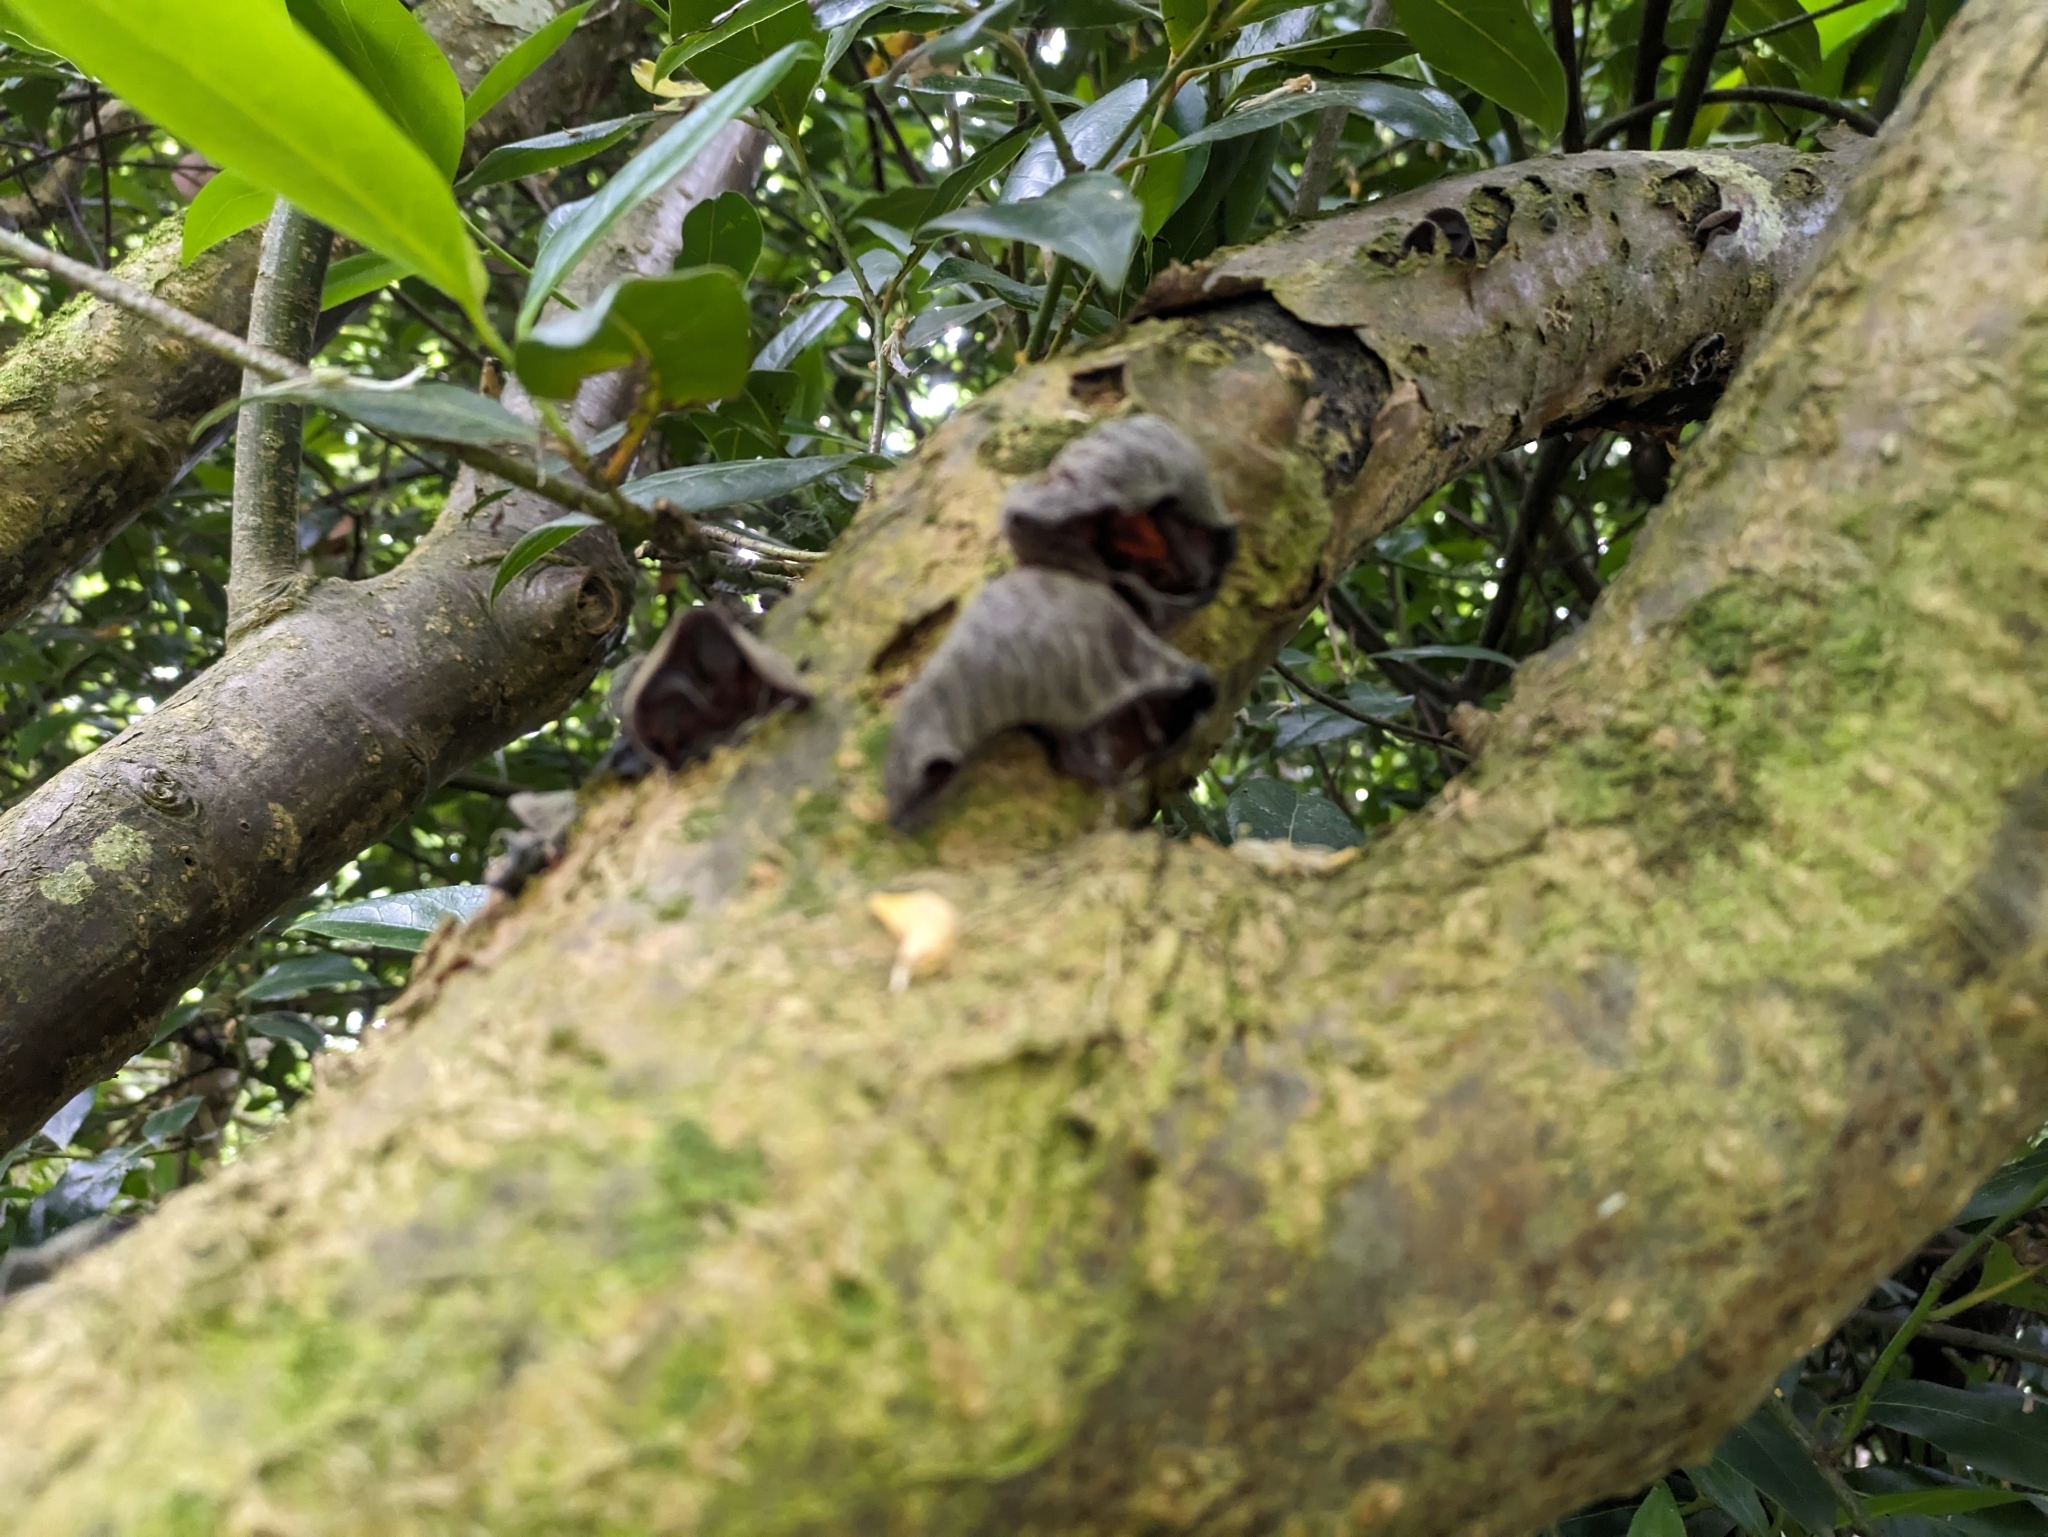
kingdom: Fungi
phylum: Basidiomycota
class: Agaricomycetes
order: Auriculariales
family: Auriculariaceae
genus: Auricularia
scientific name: Auricularia auricula-judae
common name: Jelly ear
